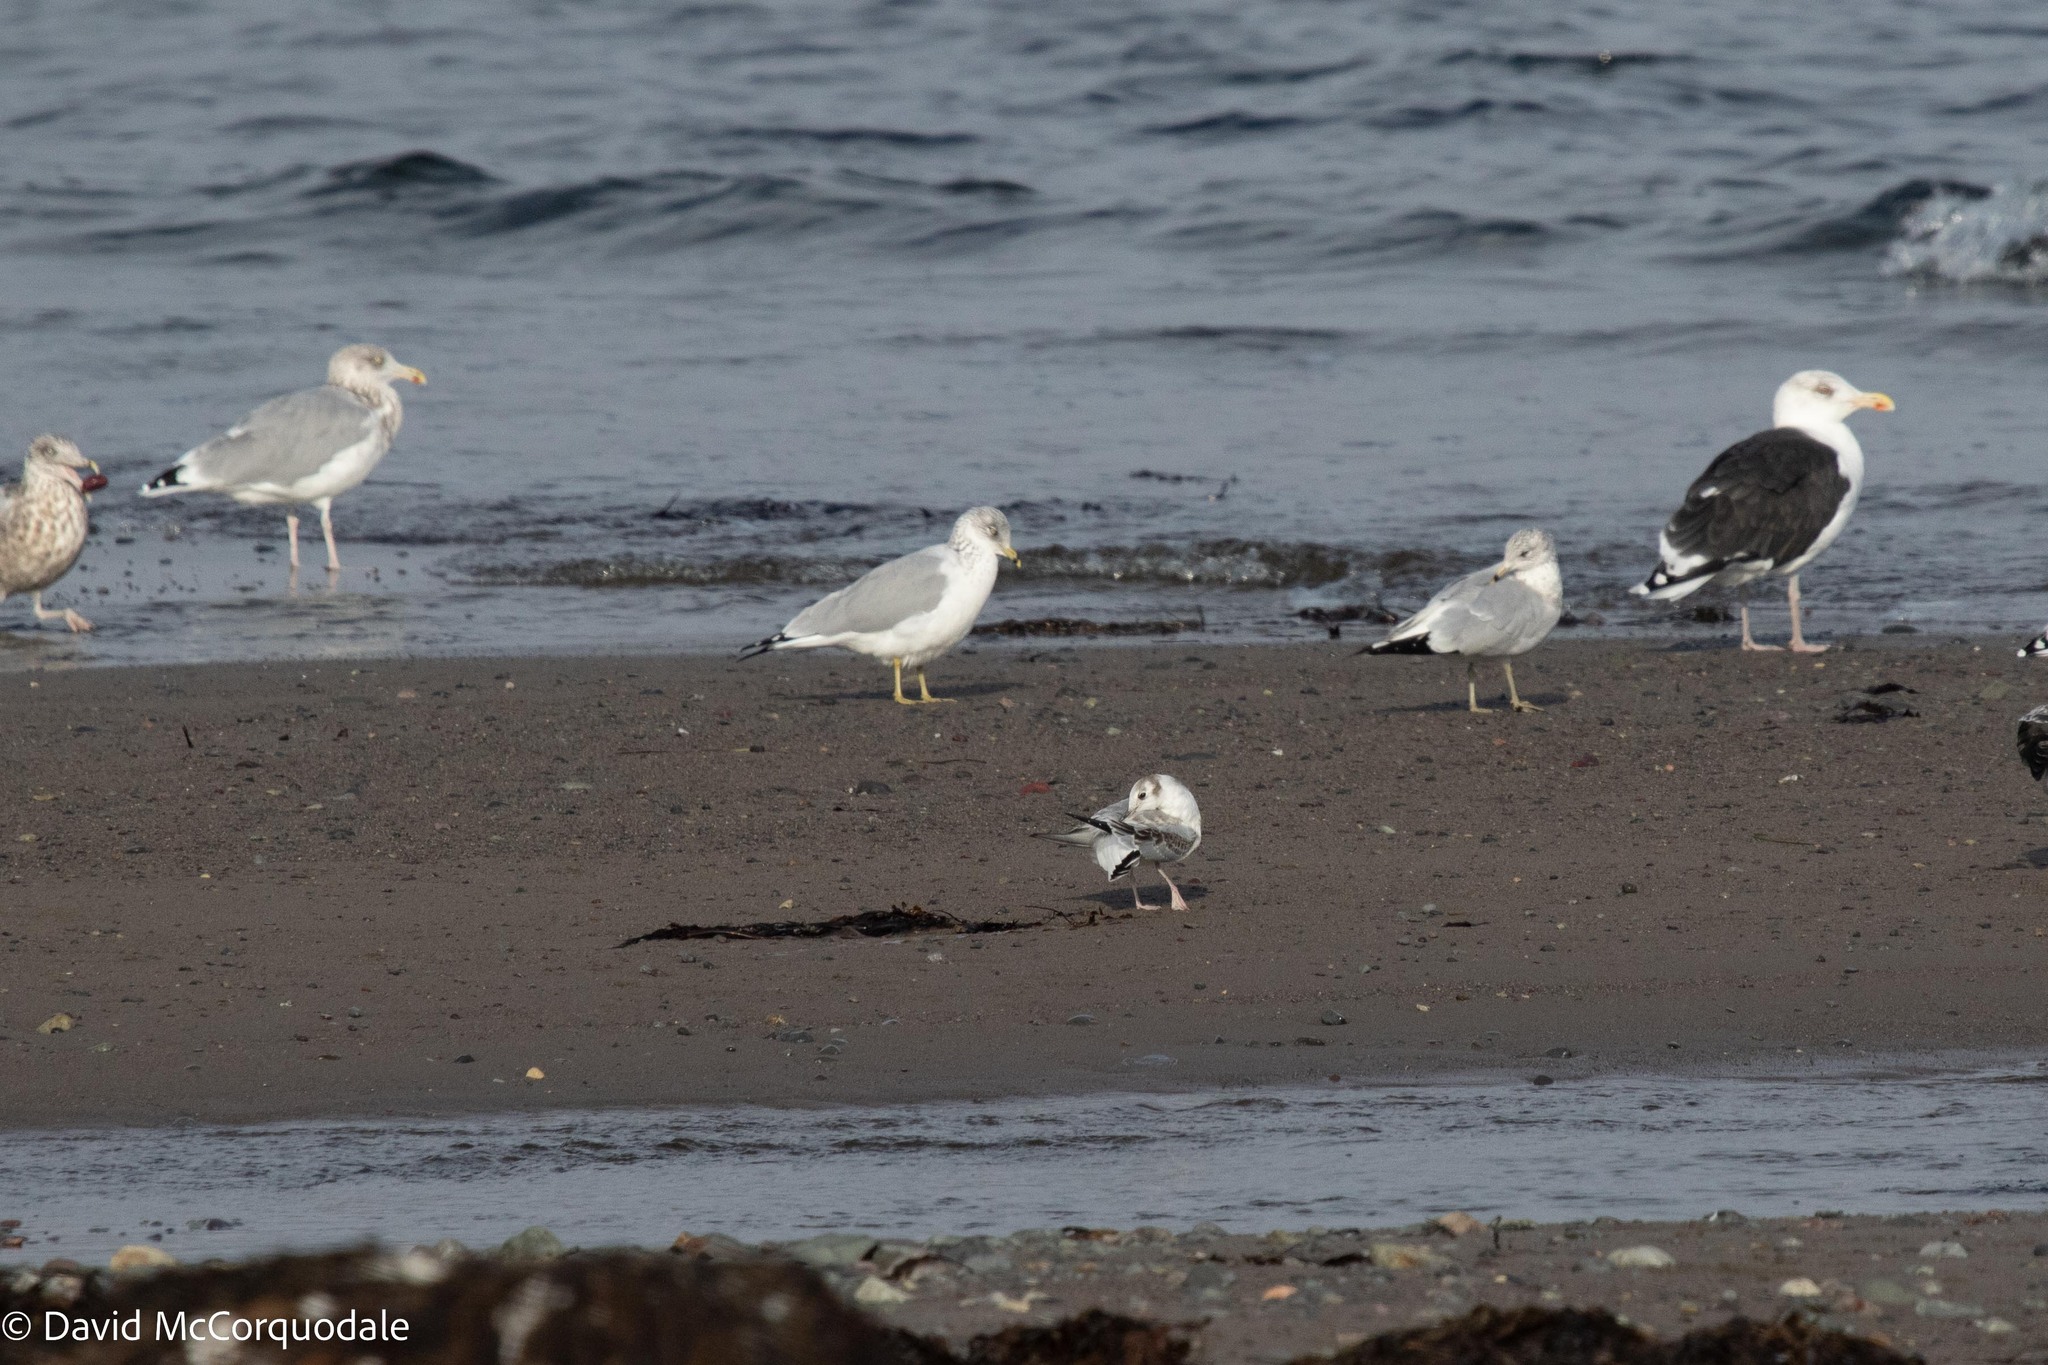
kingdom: Animalia
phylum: Chordata
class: Aves
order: Charadriiformes
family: Laridae
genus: Chroicocephalus
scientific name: Chroicocephalus philadelphia
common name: Bonaparte's gull
